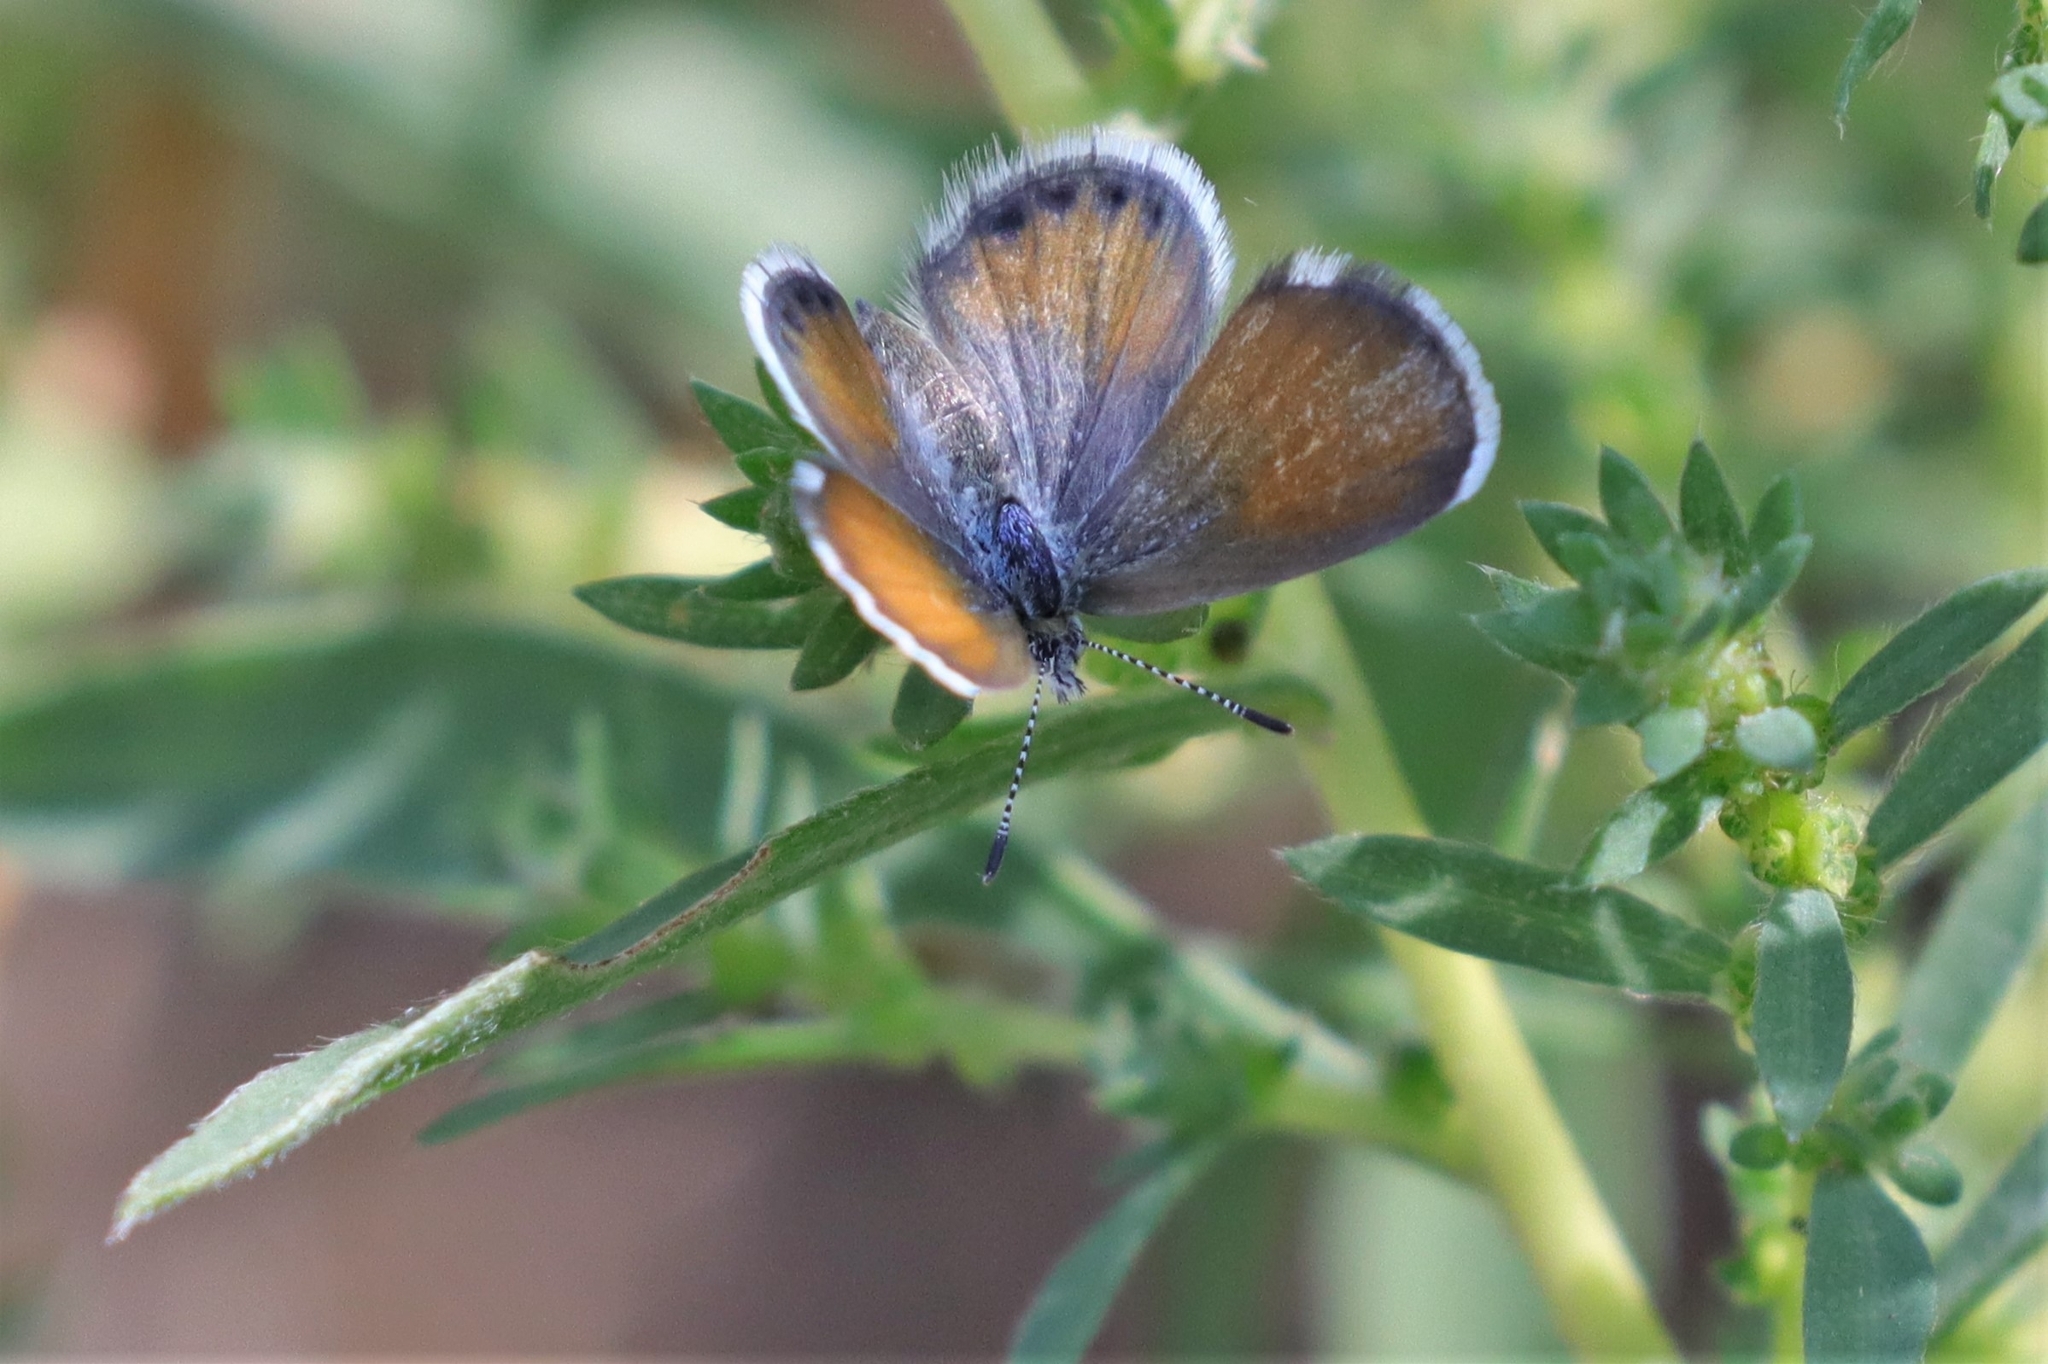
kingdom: Animalia
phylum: Arthropoda
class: Insecta
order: Lepidoptera
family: Lycaenidae
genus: Brephidium
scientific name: Brephidium exilis
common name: Pygmy blue
